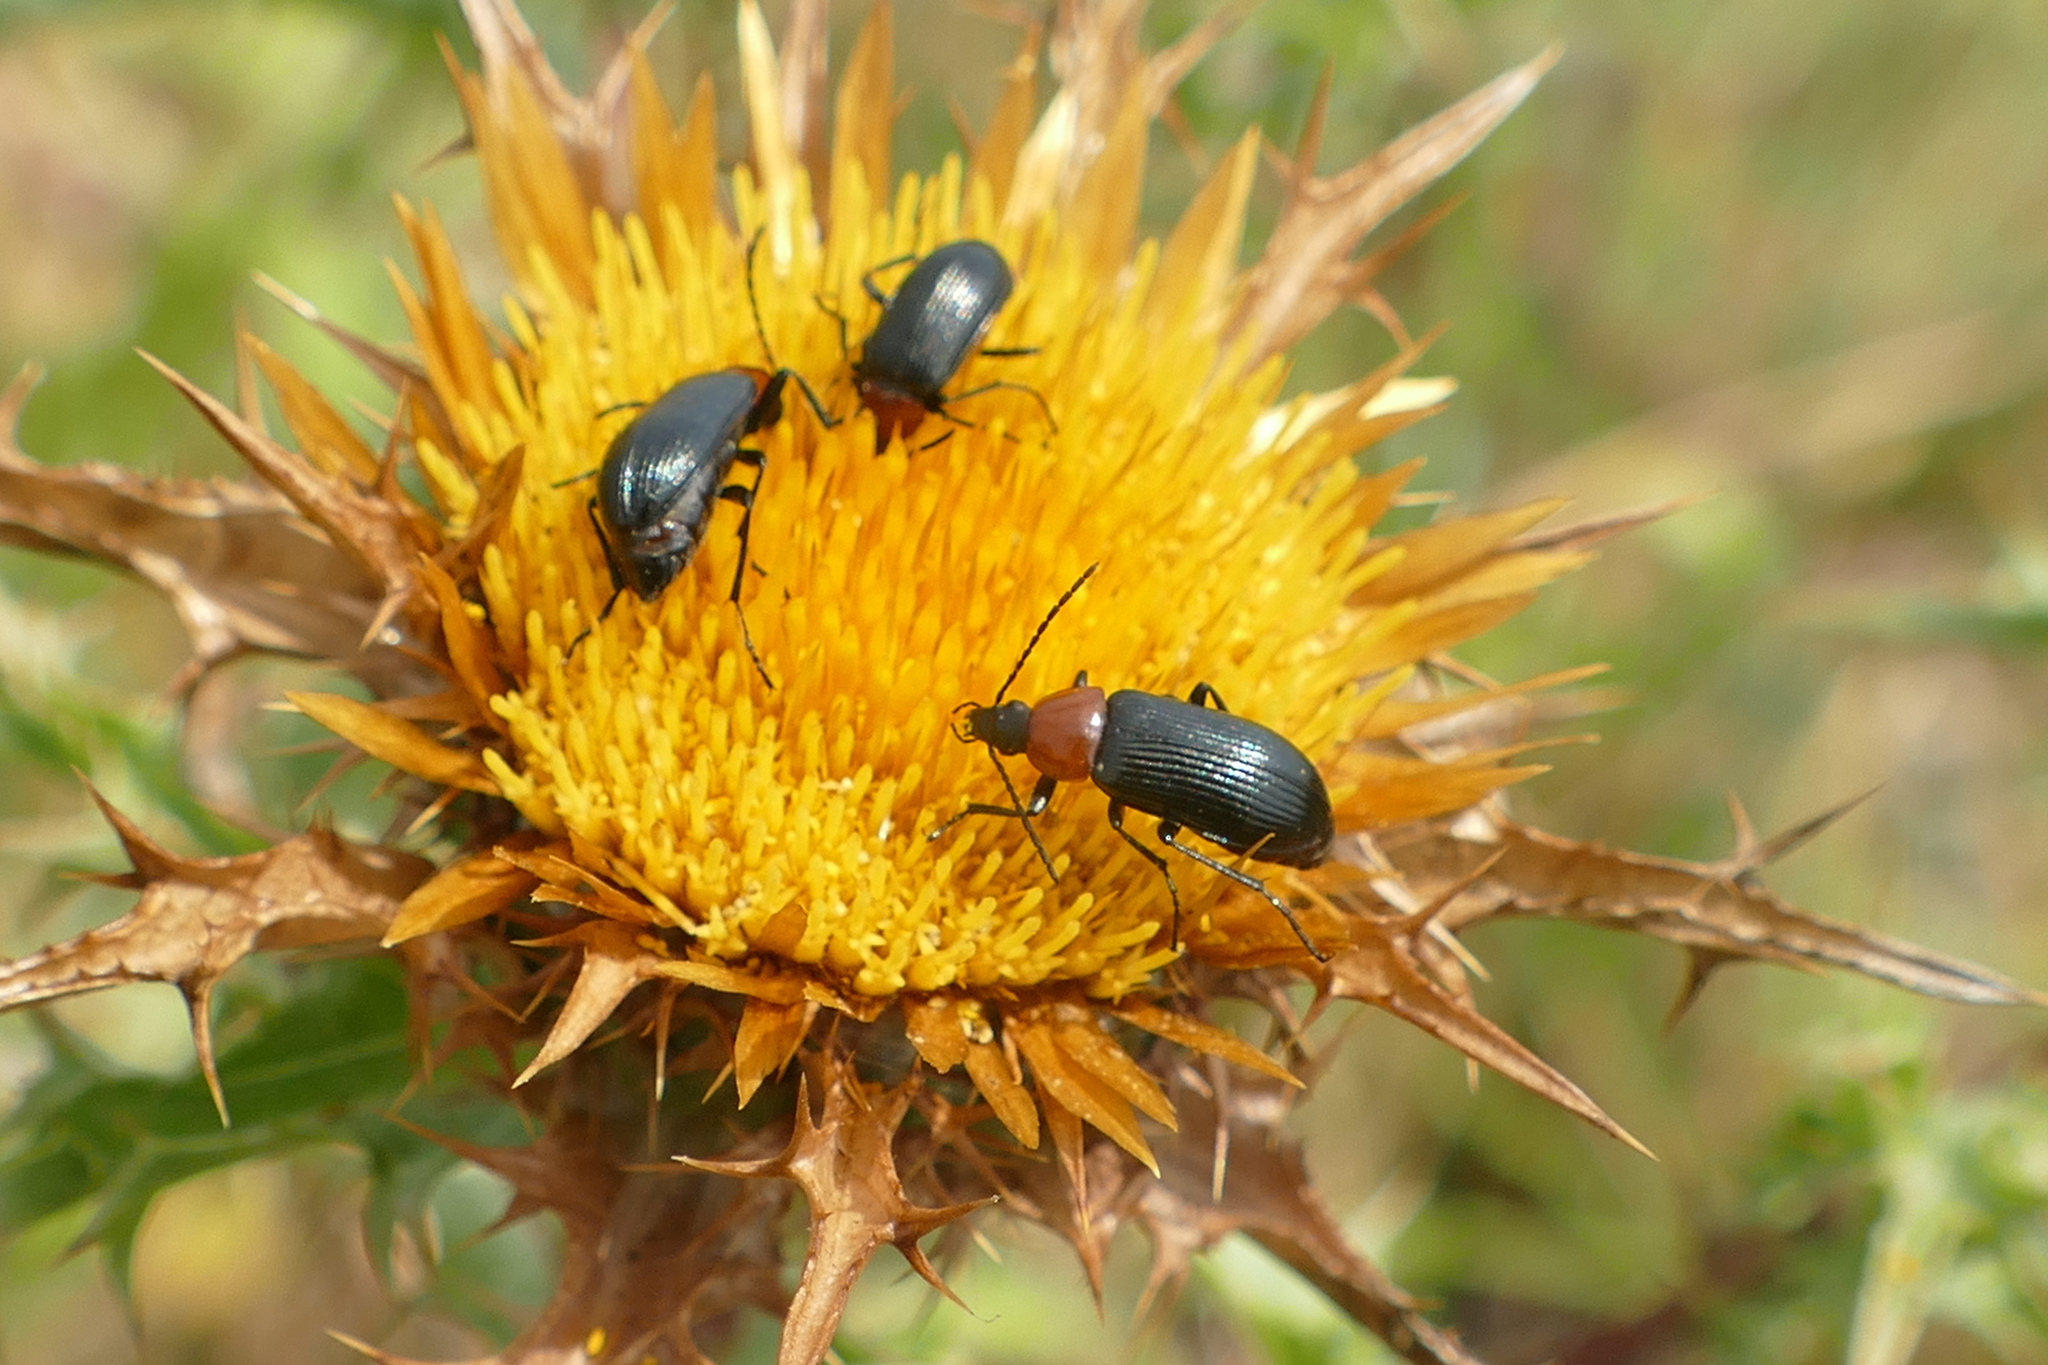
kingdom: Animalia
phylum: Arthropoda
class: Insecta
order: Coleoptera
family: Tenebrionidae
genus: Heliotaurus
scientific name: Heliotaurus ruficollis
